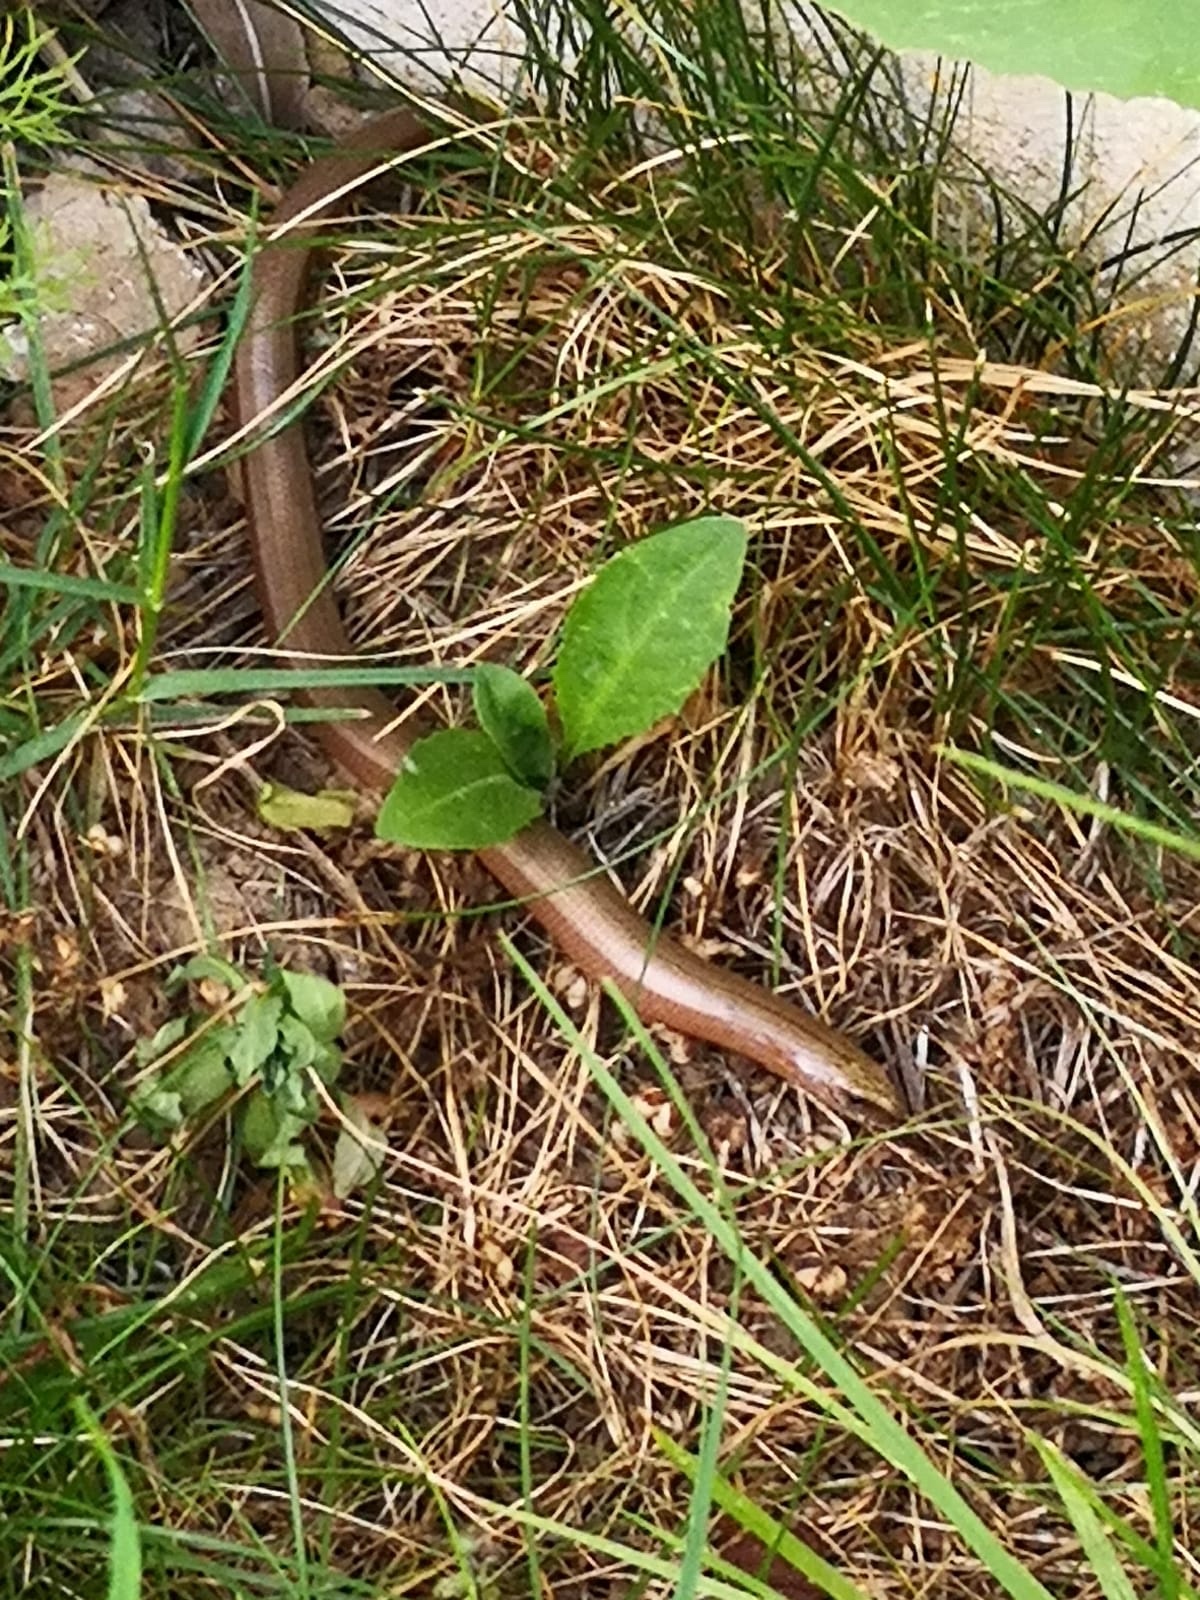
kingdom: Animalia
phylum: Chordata
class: Squamata
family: Anguidae
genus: Anguis
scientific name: Anguis fragilis
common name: Slow worm
